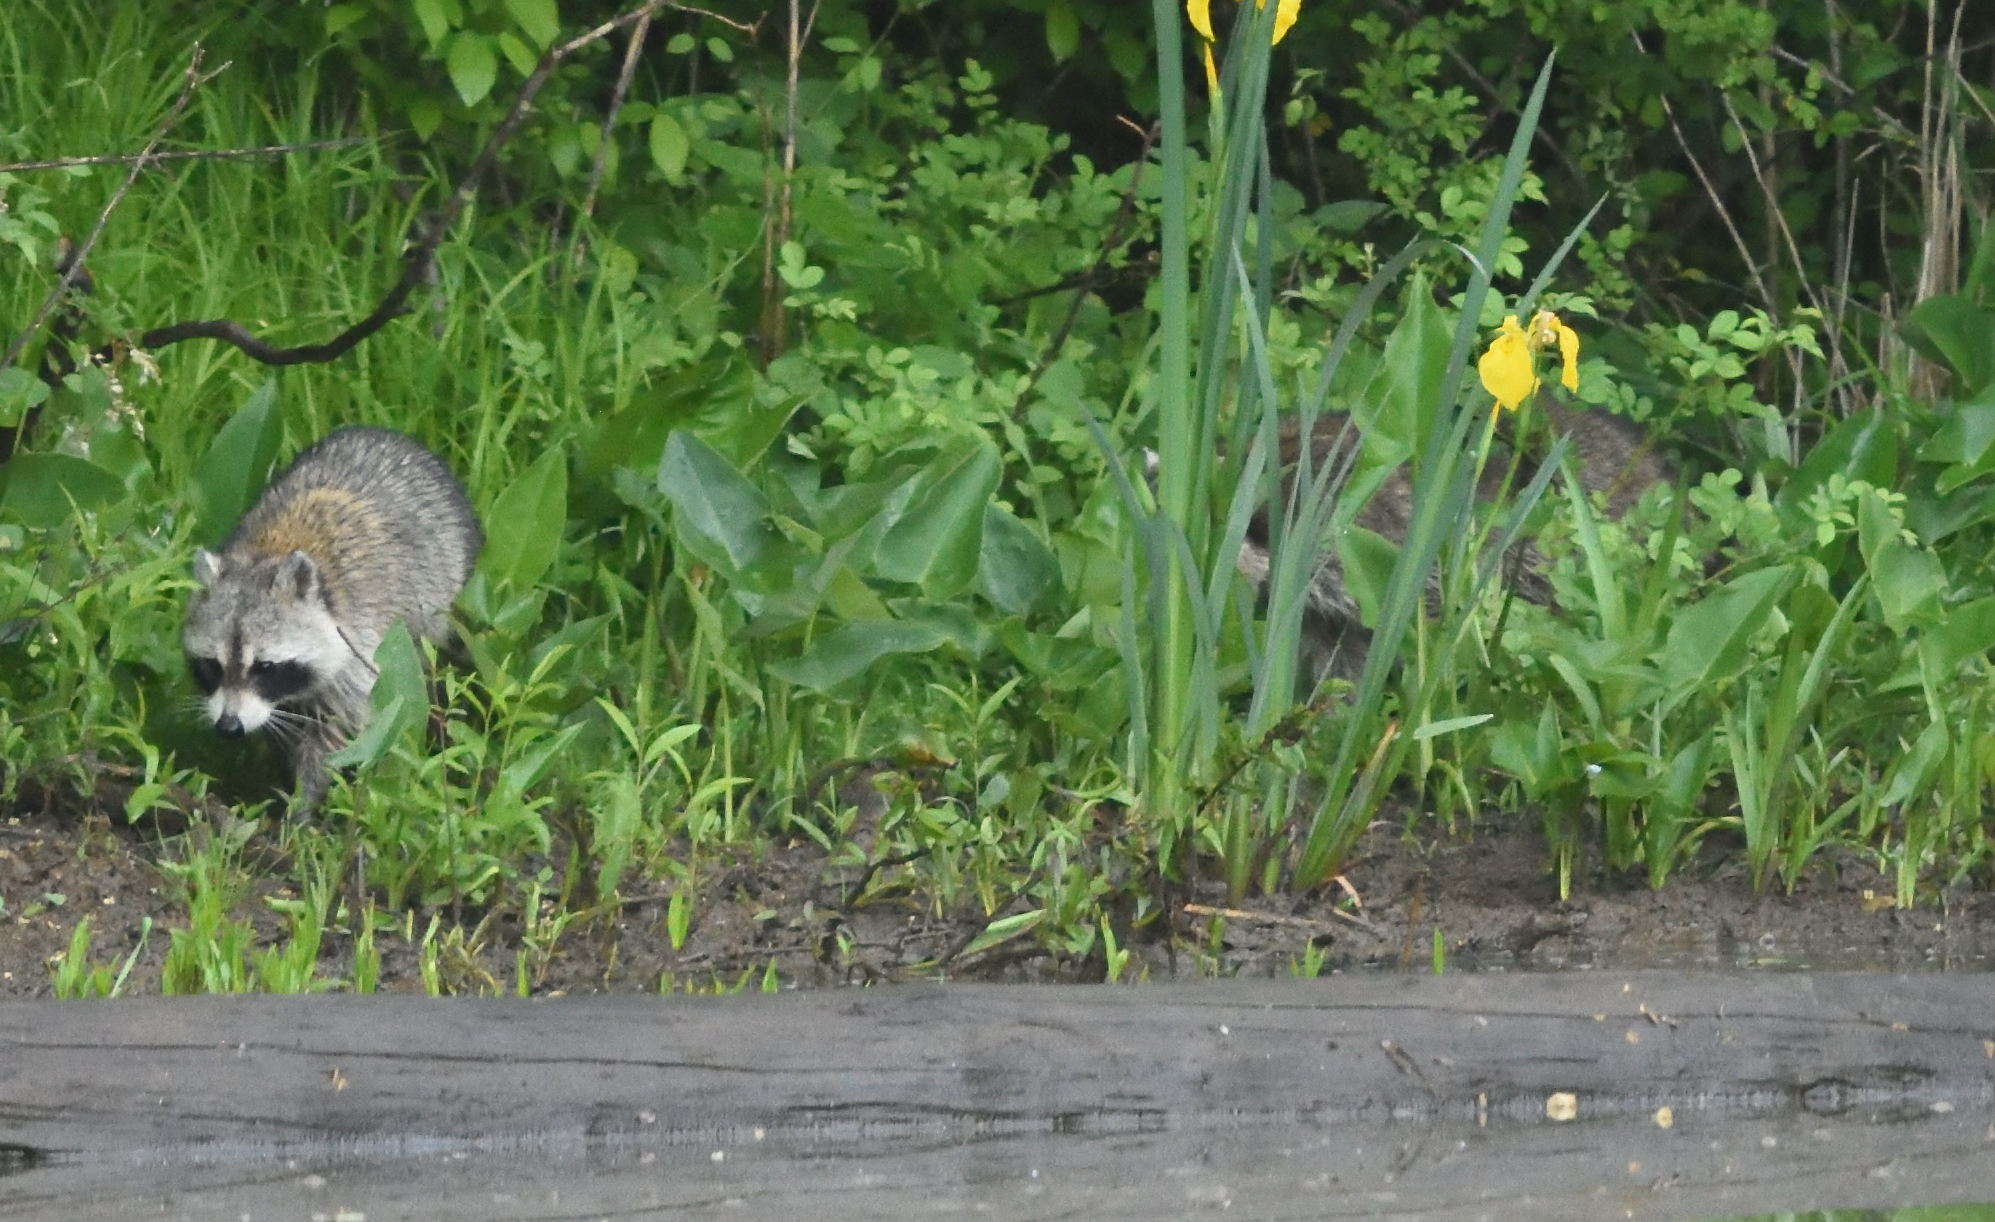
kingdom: Animalia
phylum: Chordata
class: Mammalia
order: Carnivora
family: Procyonidae
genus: Procyon
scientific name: Procyon lotor
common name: Raccoon
